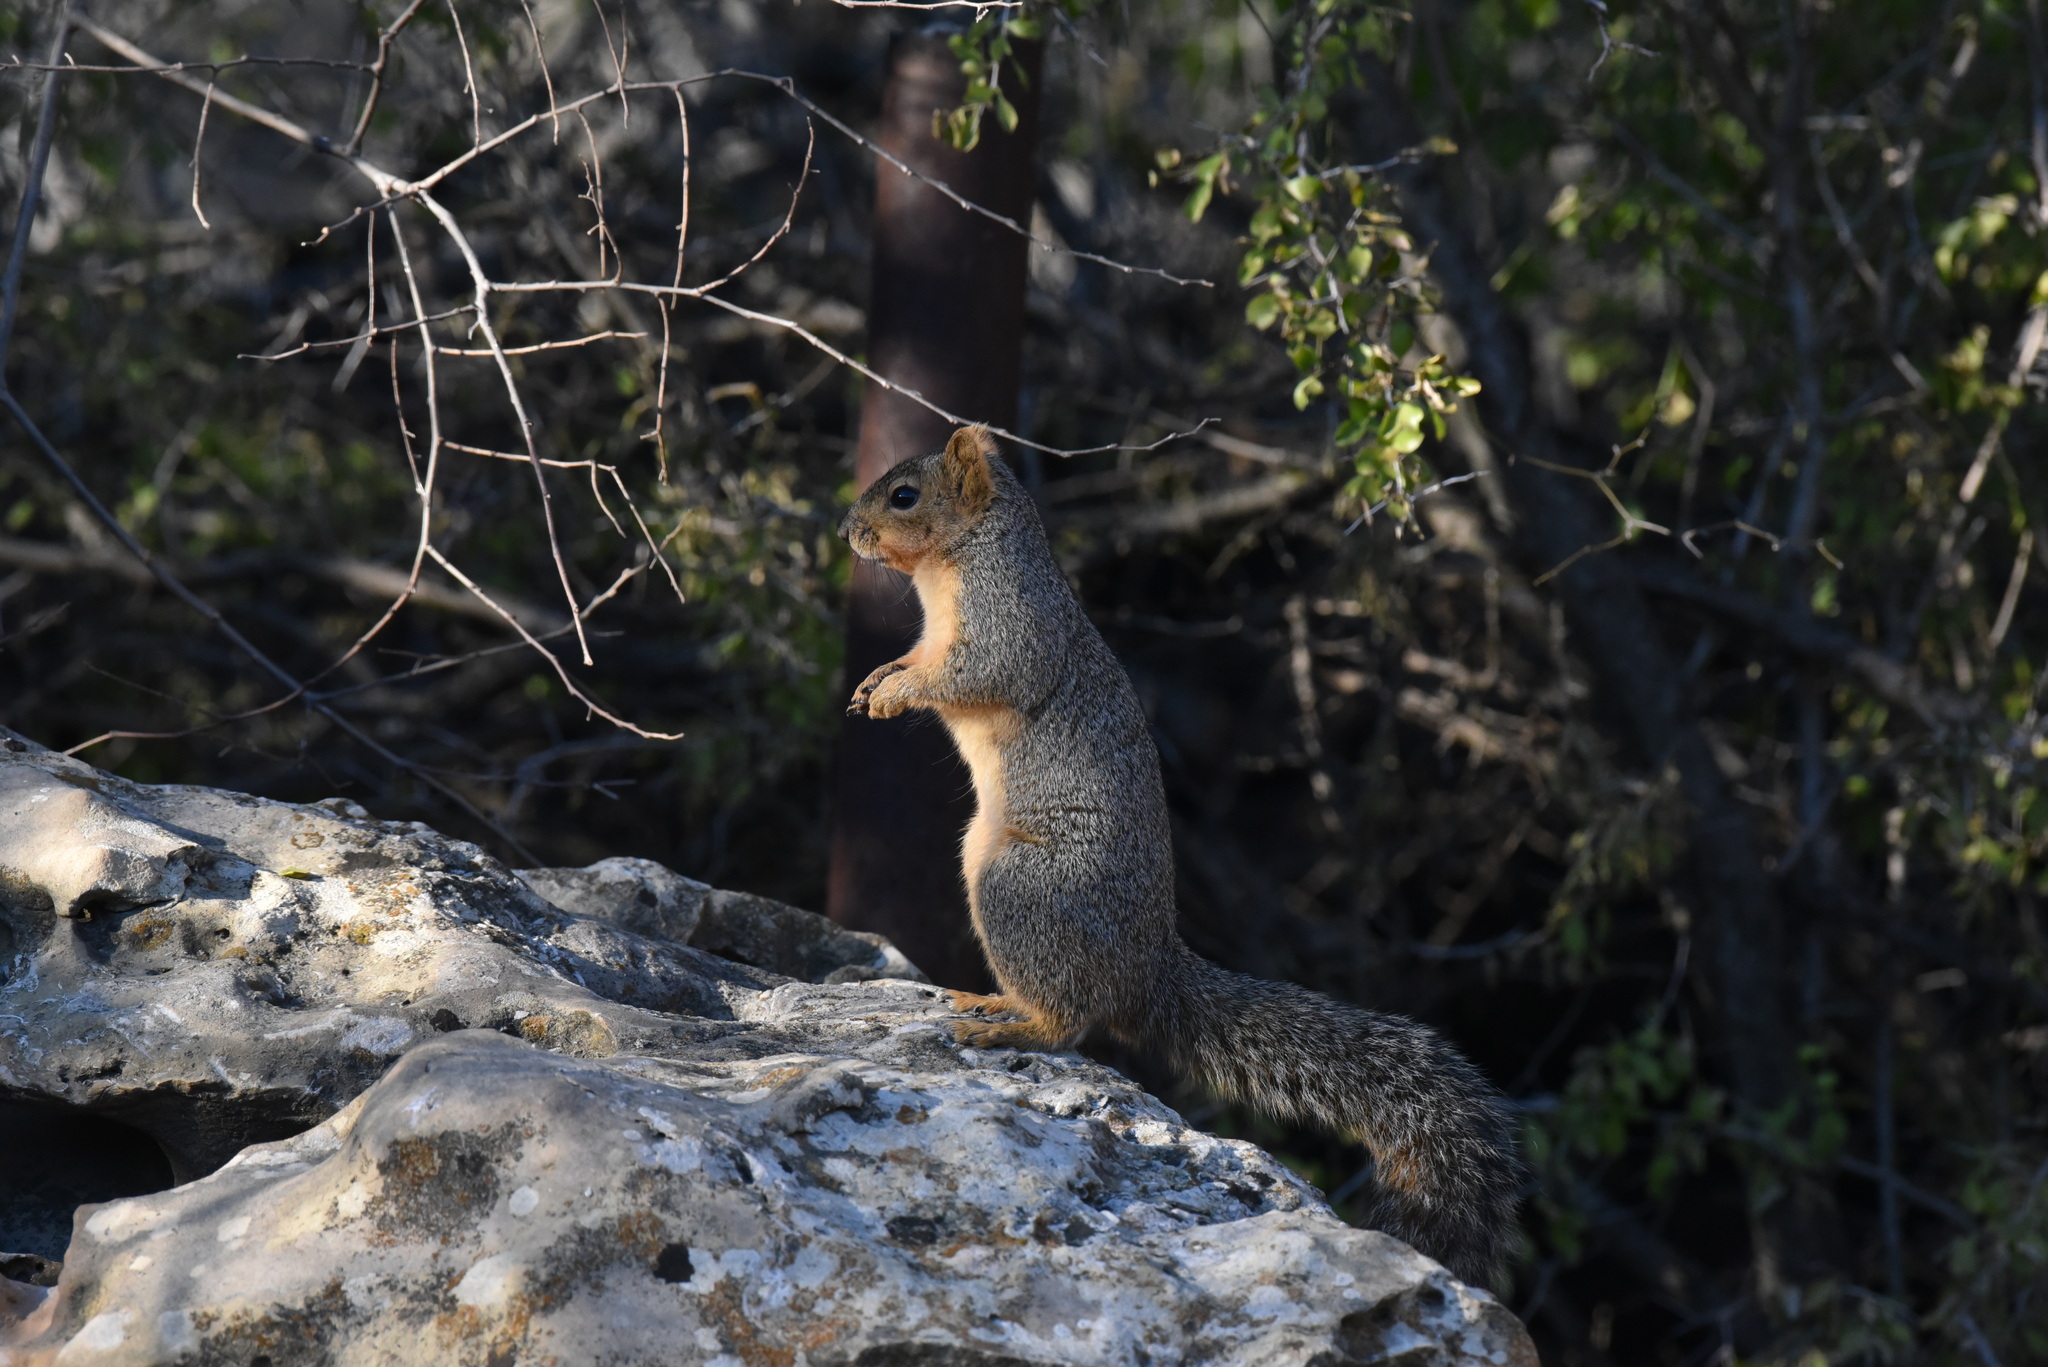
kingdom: Animalia
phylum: Chordata
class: Mammalia
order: Rodentia
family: Sciuridae
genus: Sciurus
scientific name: Sciurus niger
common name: Fox squirrel
